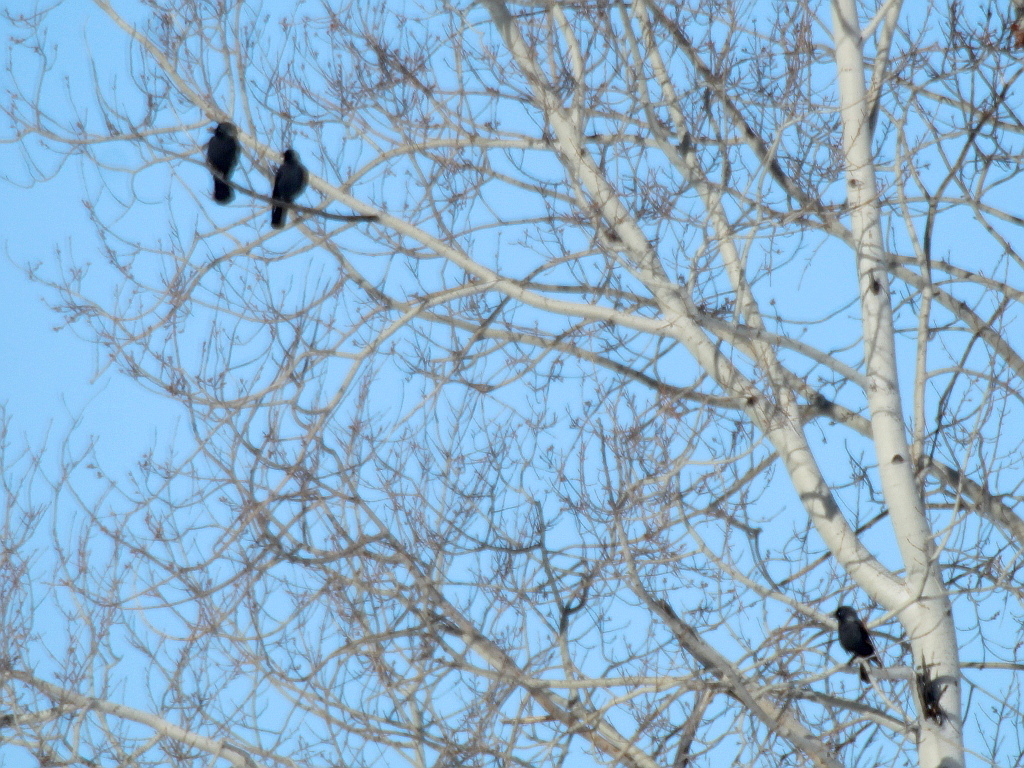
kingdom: Animalia
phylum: Chordata
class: Aves
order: Passeriformes
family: Corvidae
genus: Coloeus
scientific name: Coloeus monedula
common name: Western jackdaw
